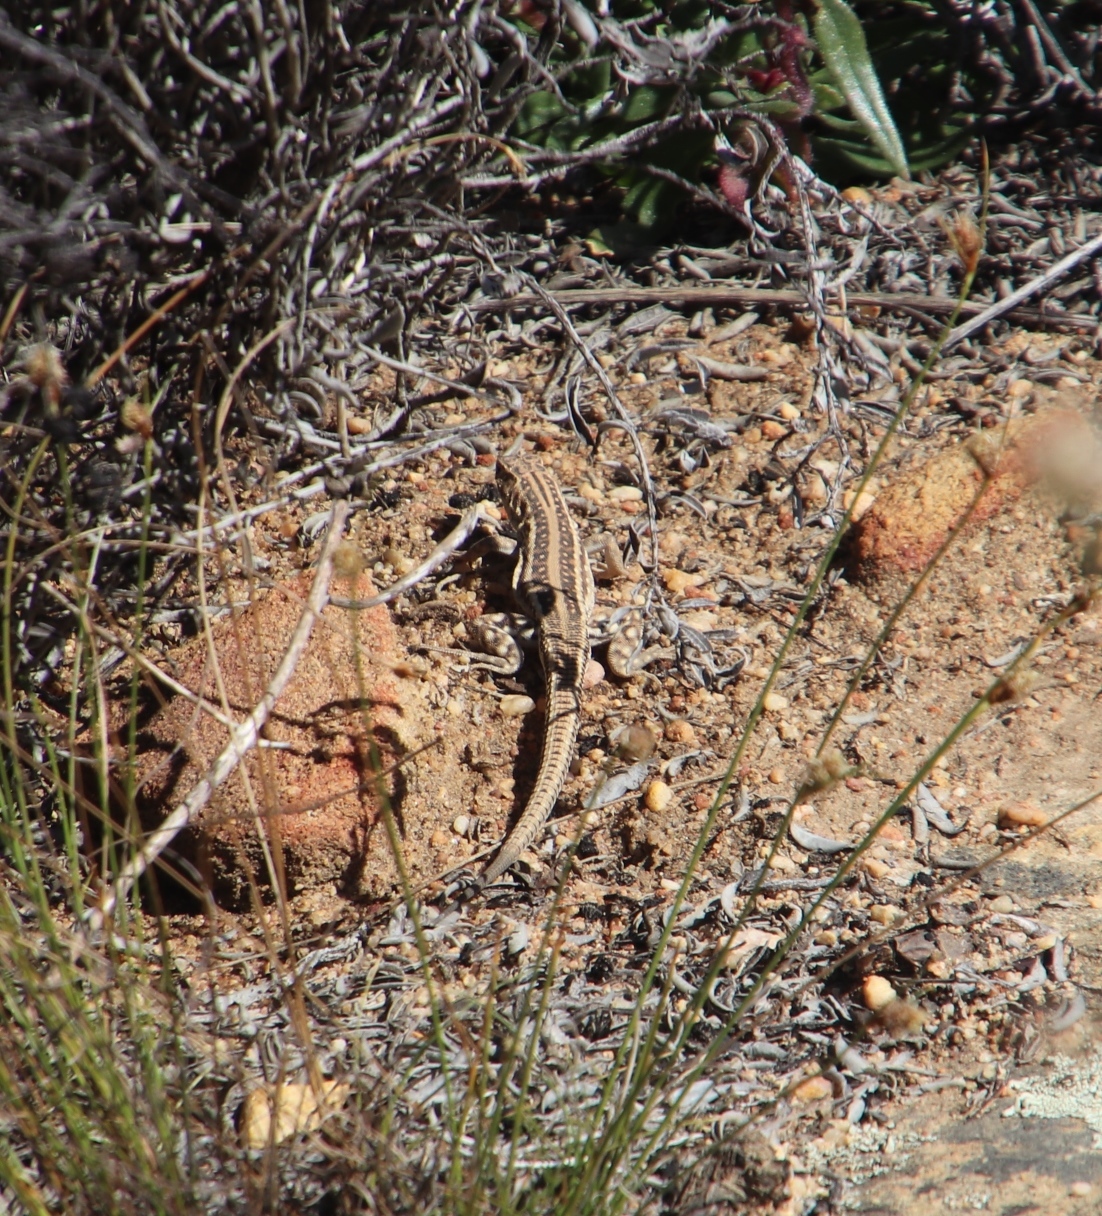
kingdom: Animalia
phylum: Chordata
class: Squamata
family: Lacertidae
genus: Pedioplanis
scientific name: Pedioplanis lineoocellata
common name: Spotted sand lizard
